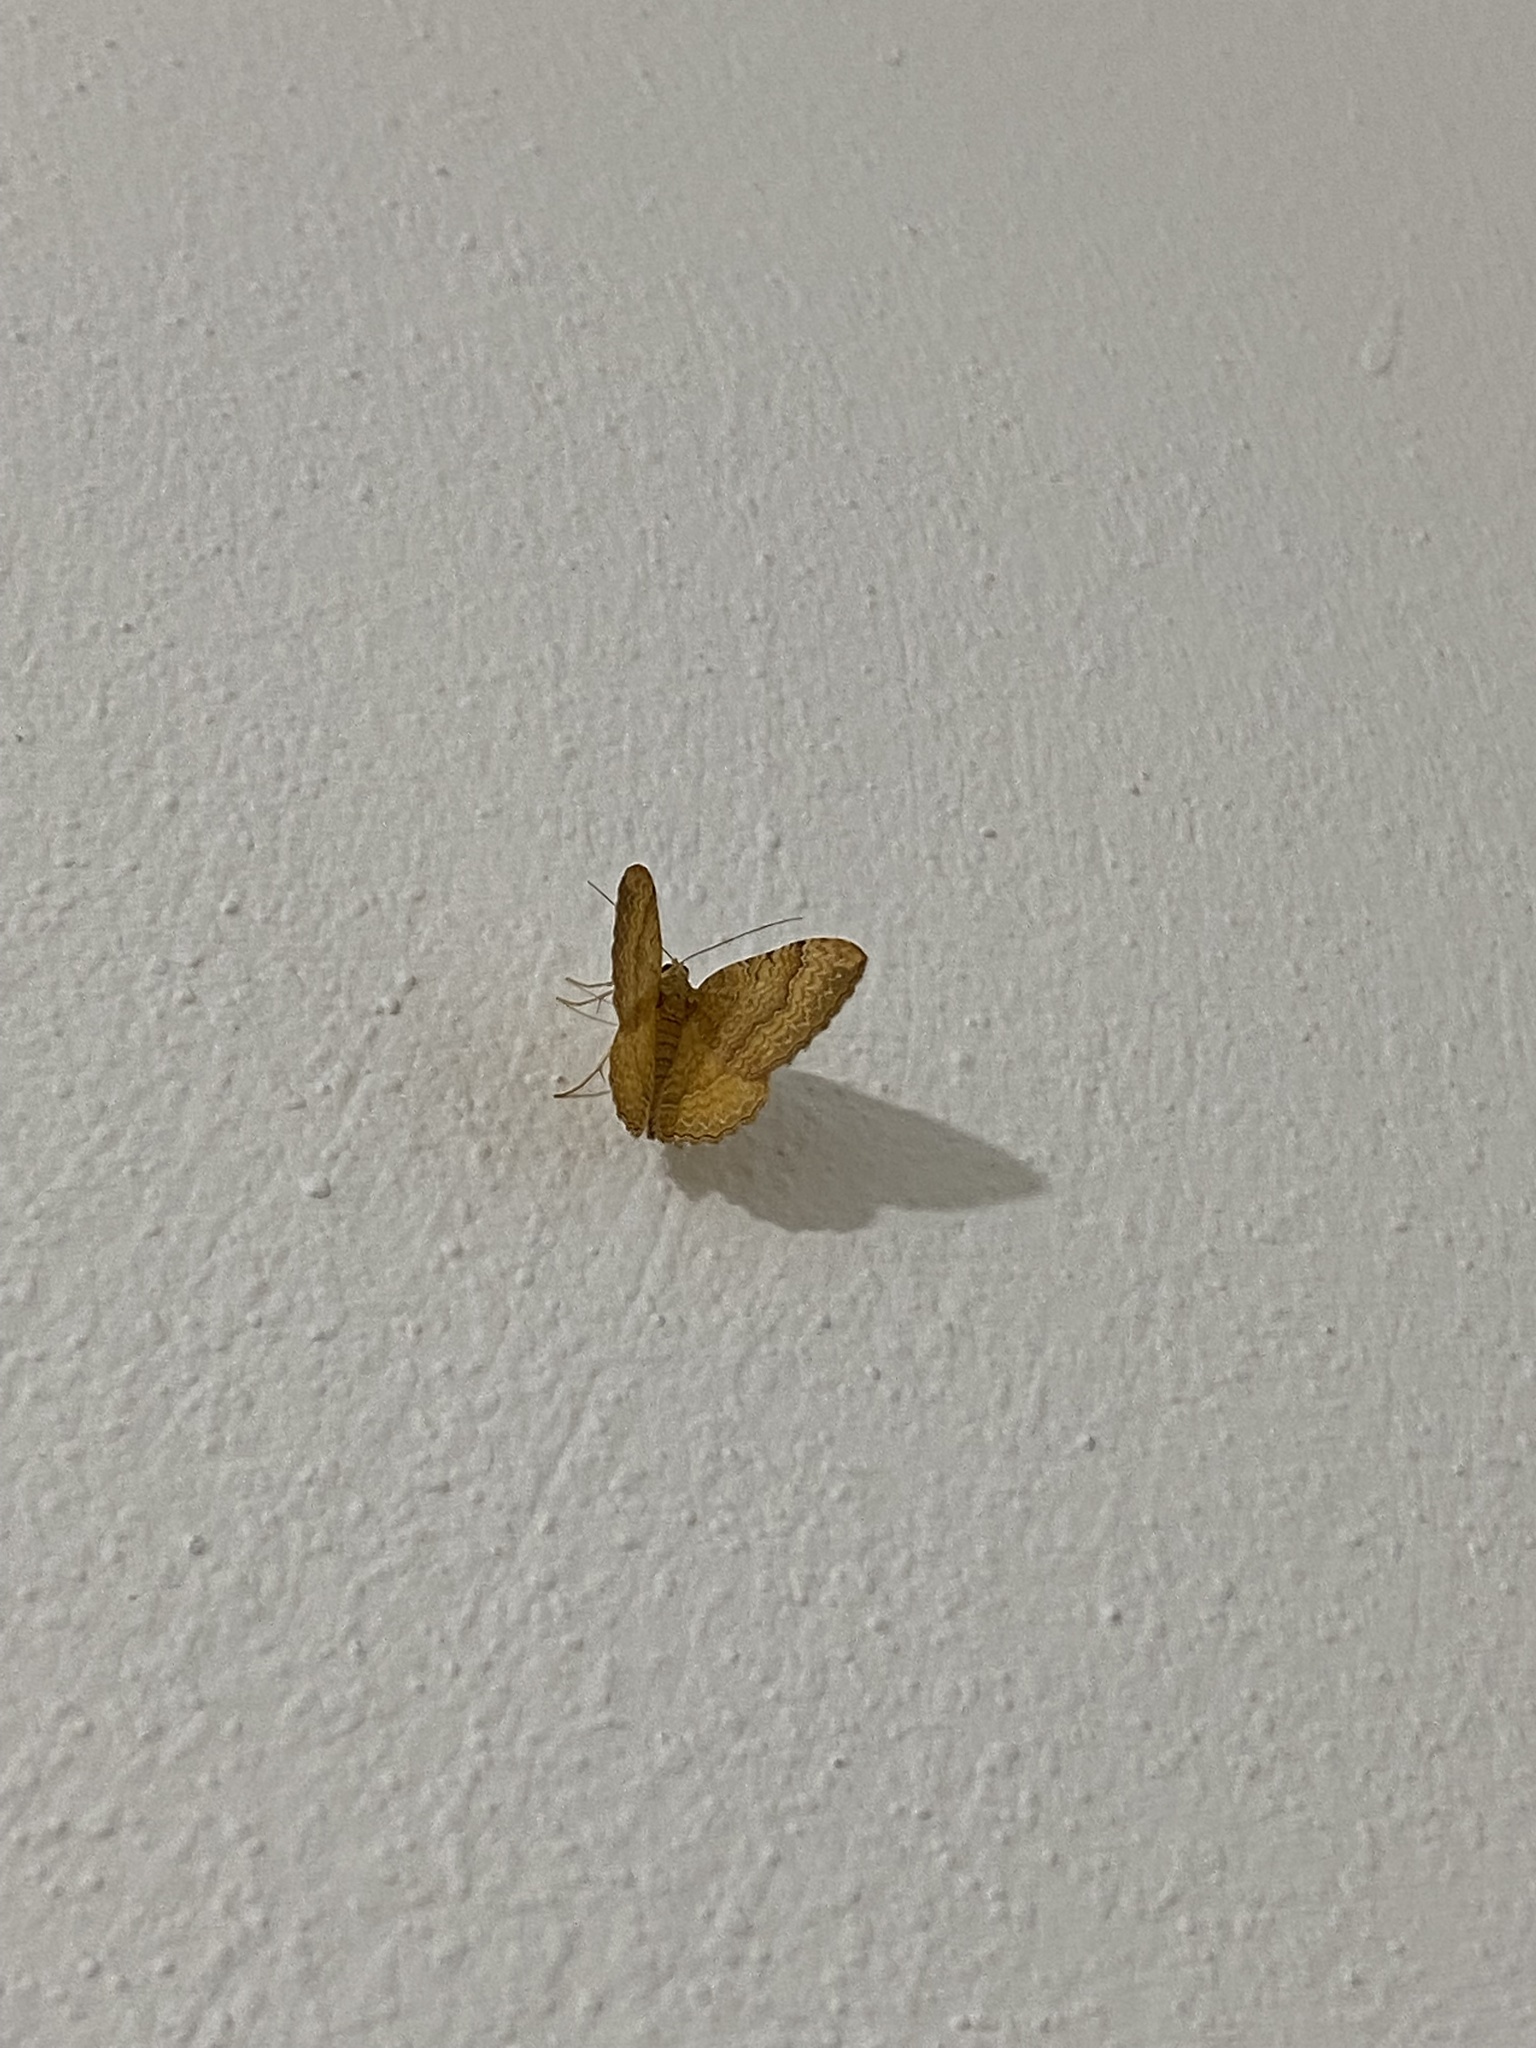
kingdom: Animalia
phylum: Arthropoda
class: Insecta
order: Lepidoptera
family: Geometridae
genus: Camptogramma
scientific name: Camptogramma bilineata
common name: Yellow shell
